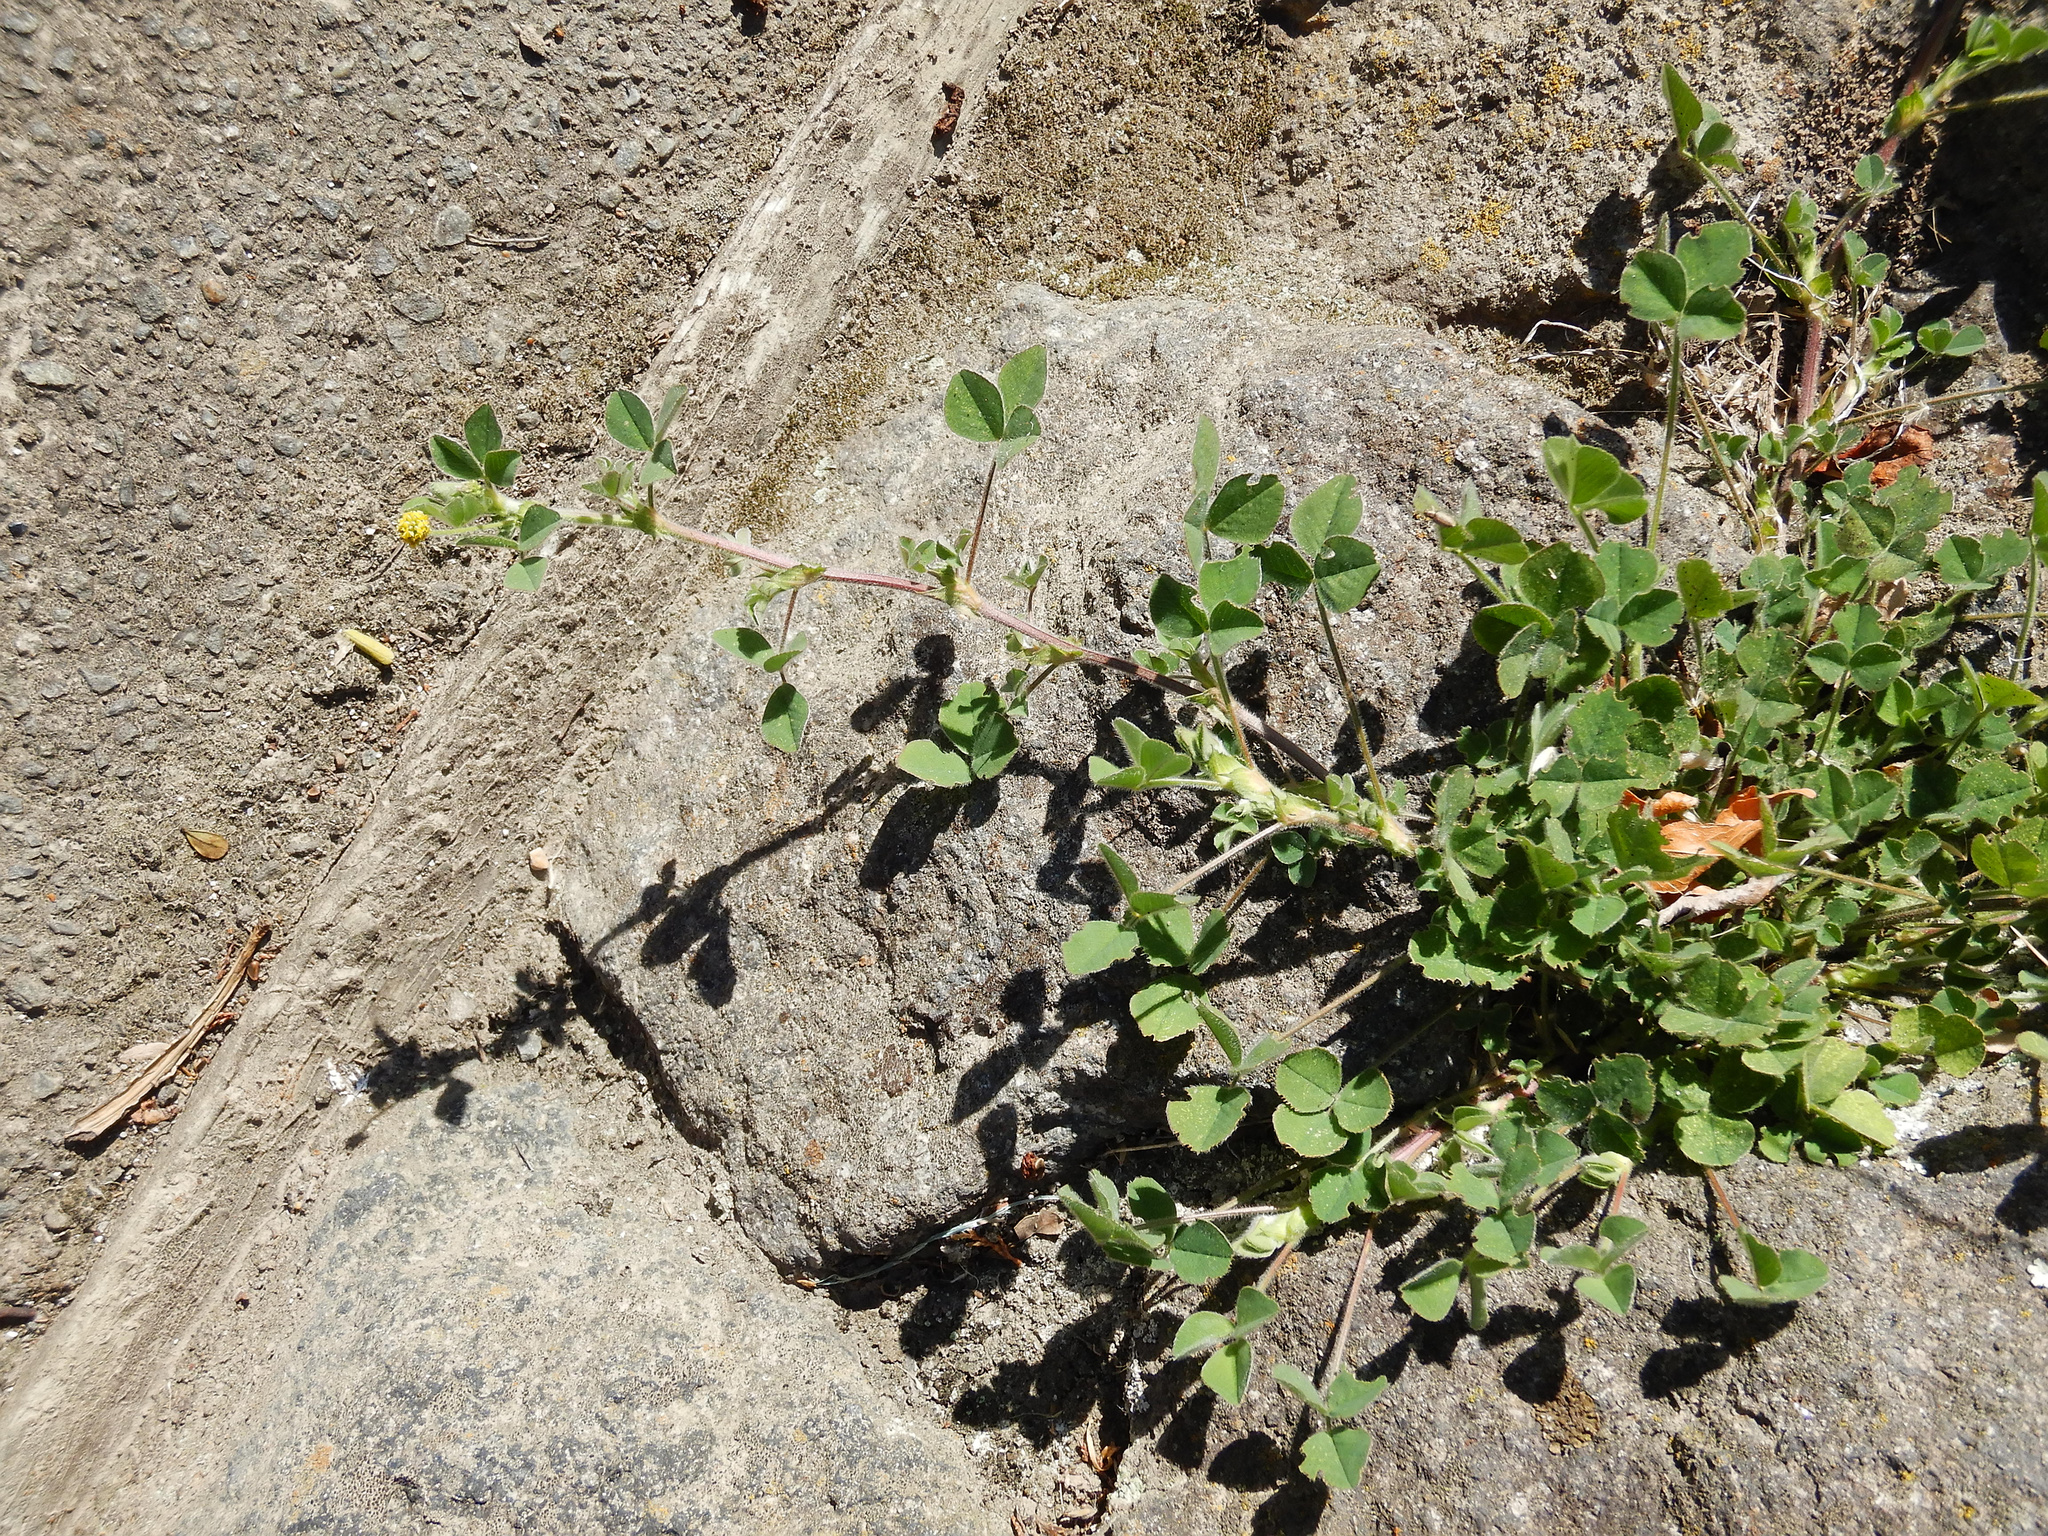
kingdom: Plantae
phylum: Tracheophyta
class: Magnoliopsida
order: Fabales
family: Fabaceae
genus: Medicago
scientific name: Medicago lupulina
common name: Black medick
